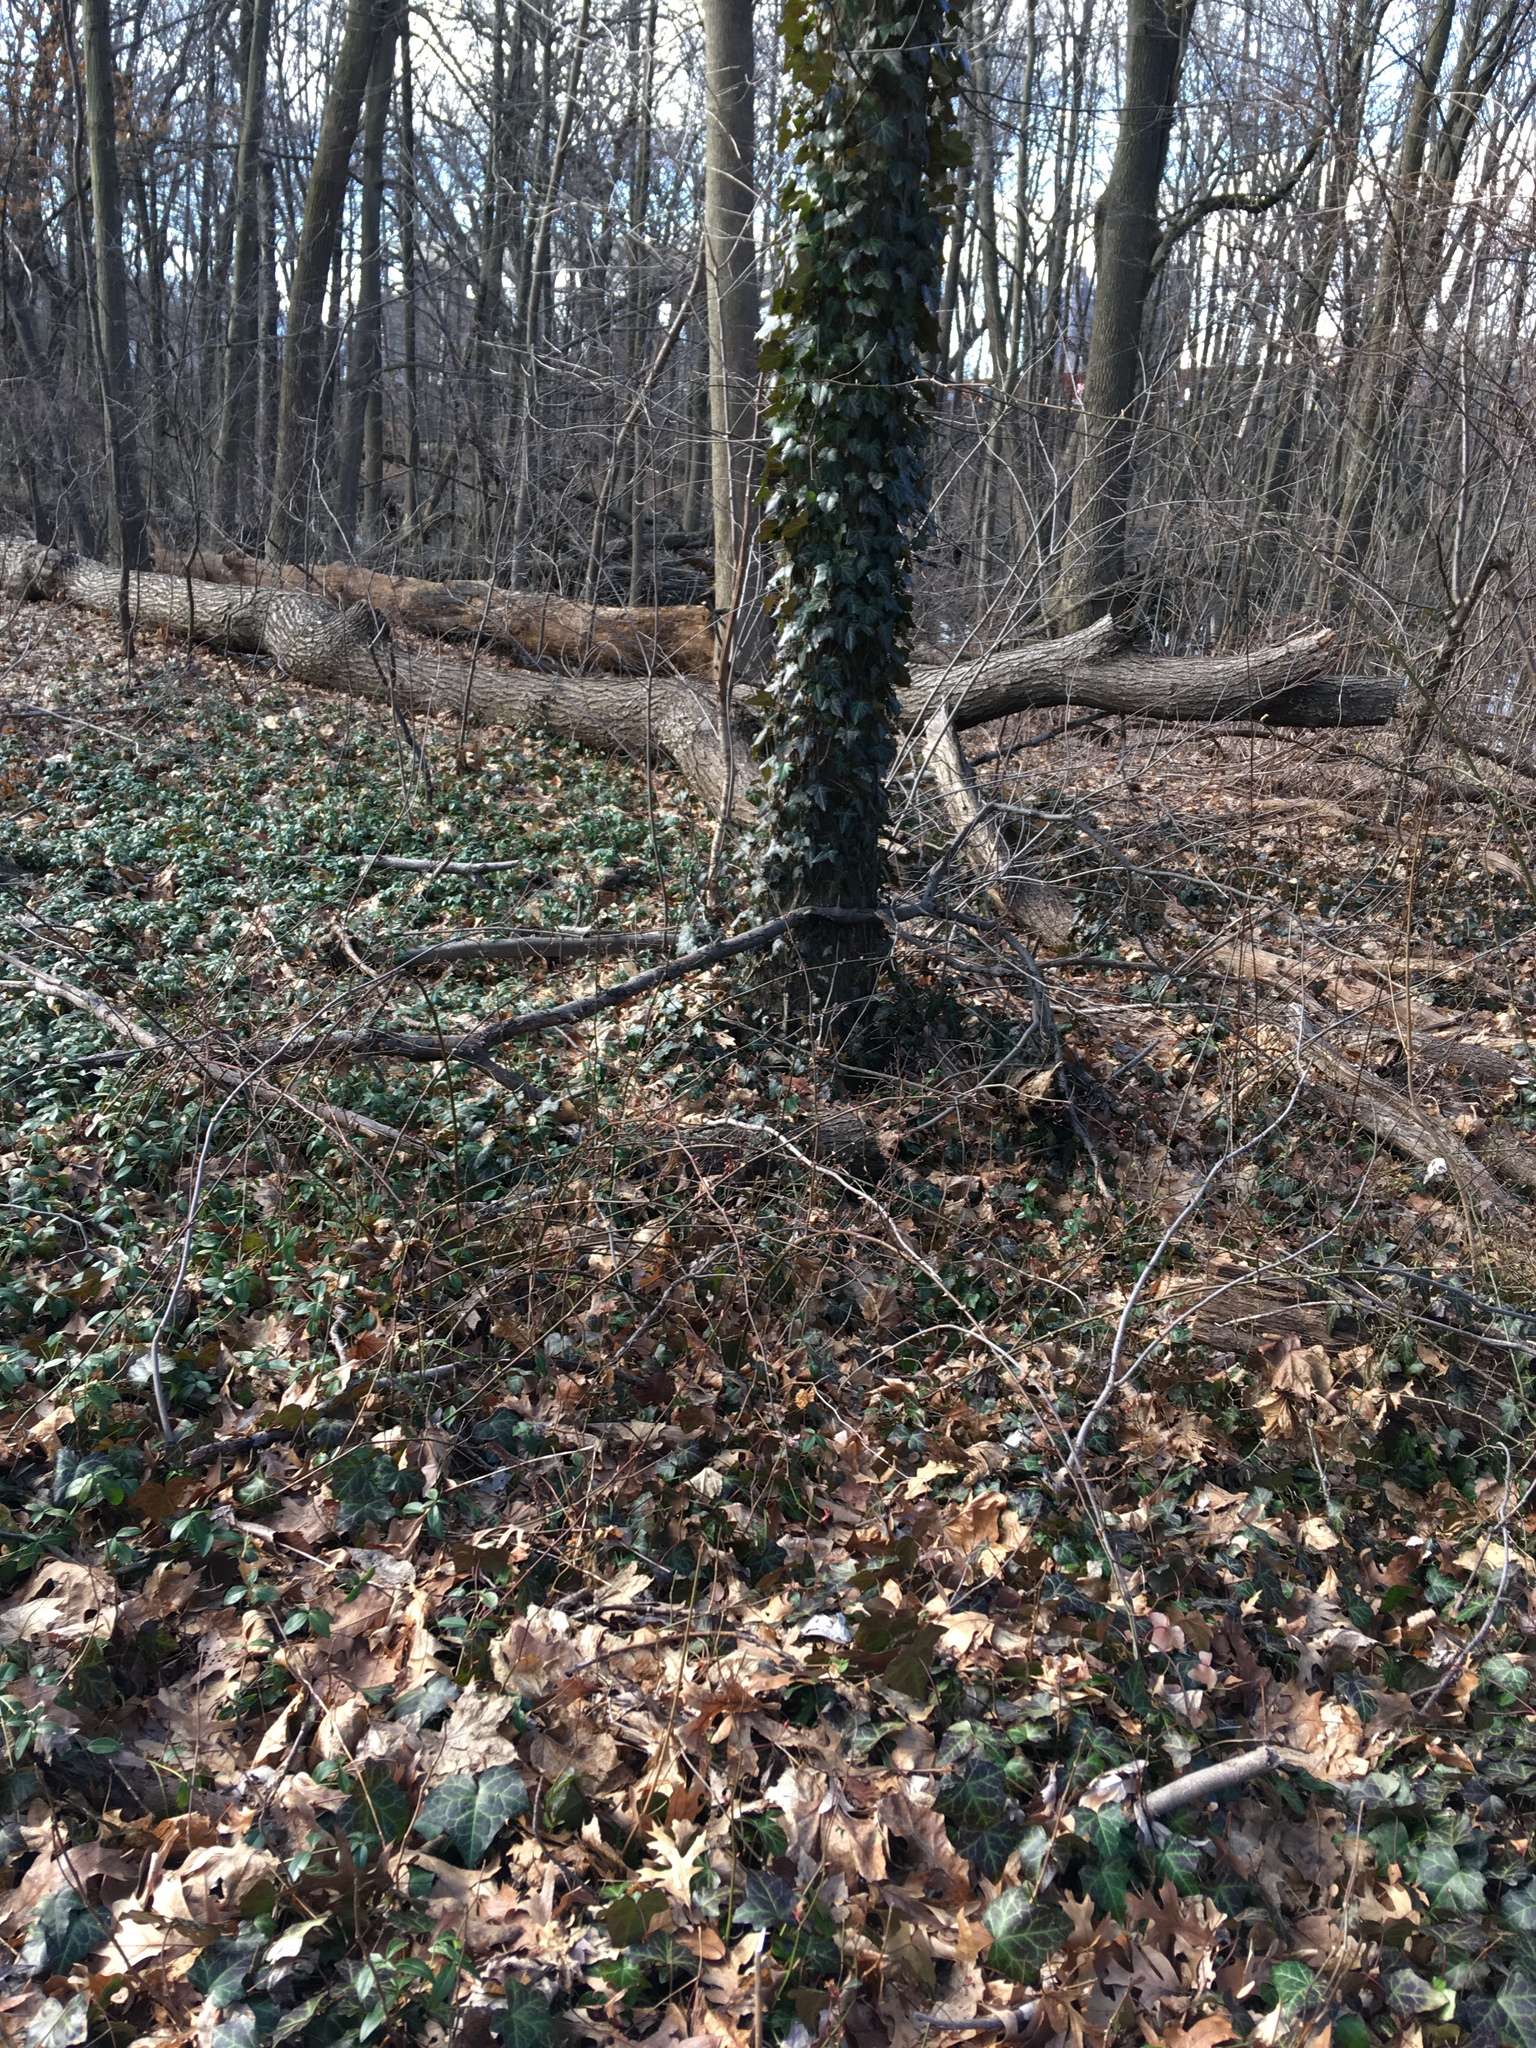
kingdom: Plantae
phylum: Tracheophyta
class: Magnoliopsida
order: Apiales
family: Araliaceae
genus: Hedera
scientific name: Hedera helix
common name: Ivy
